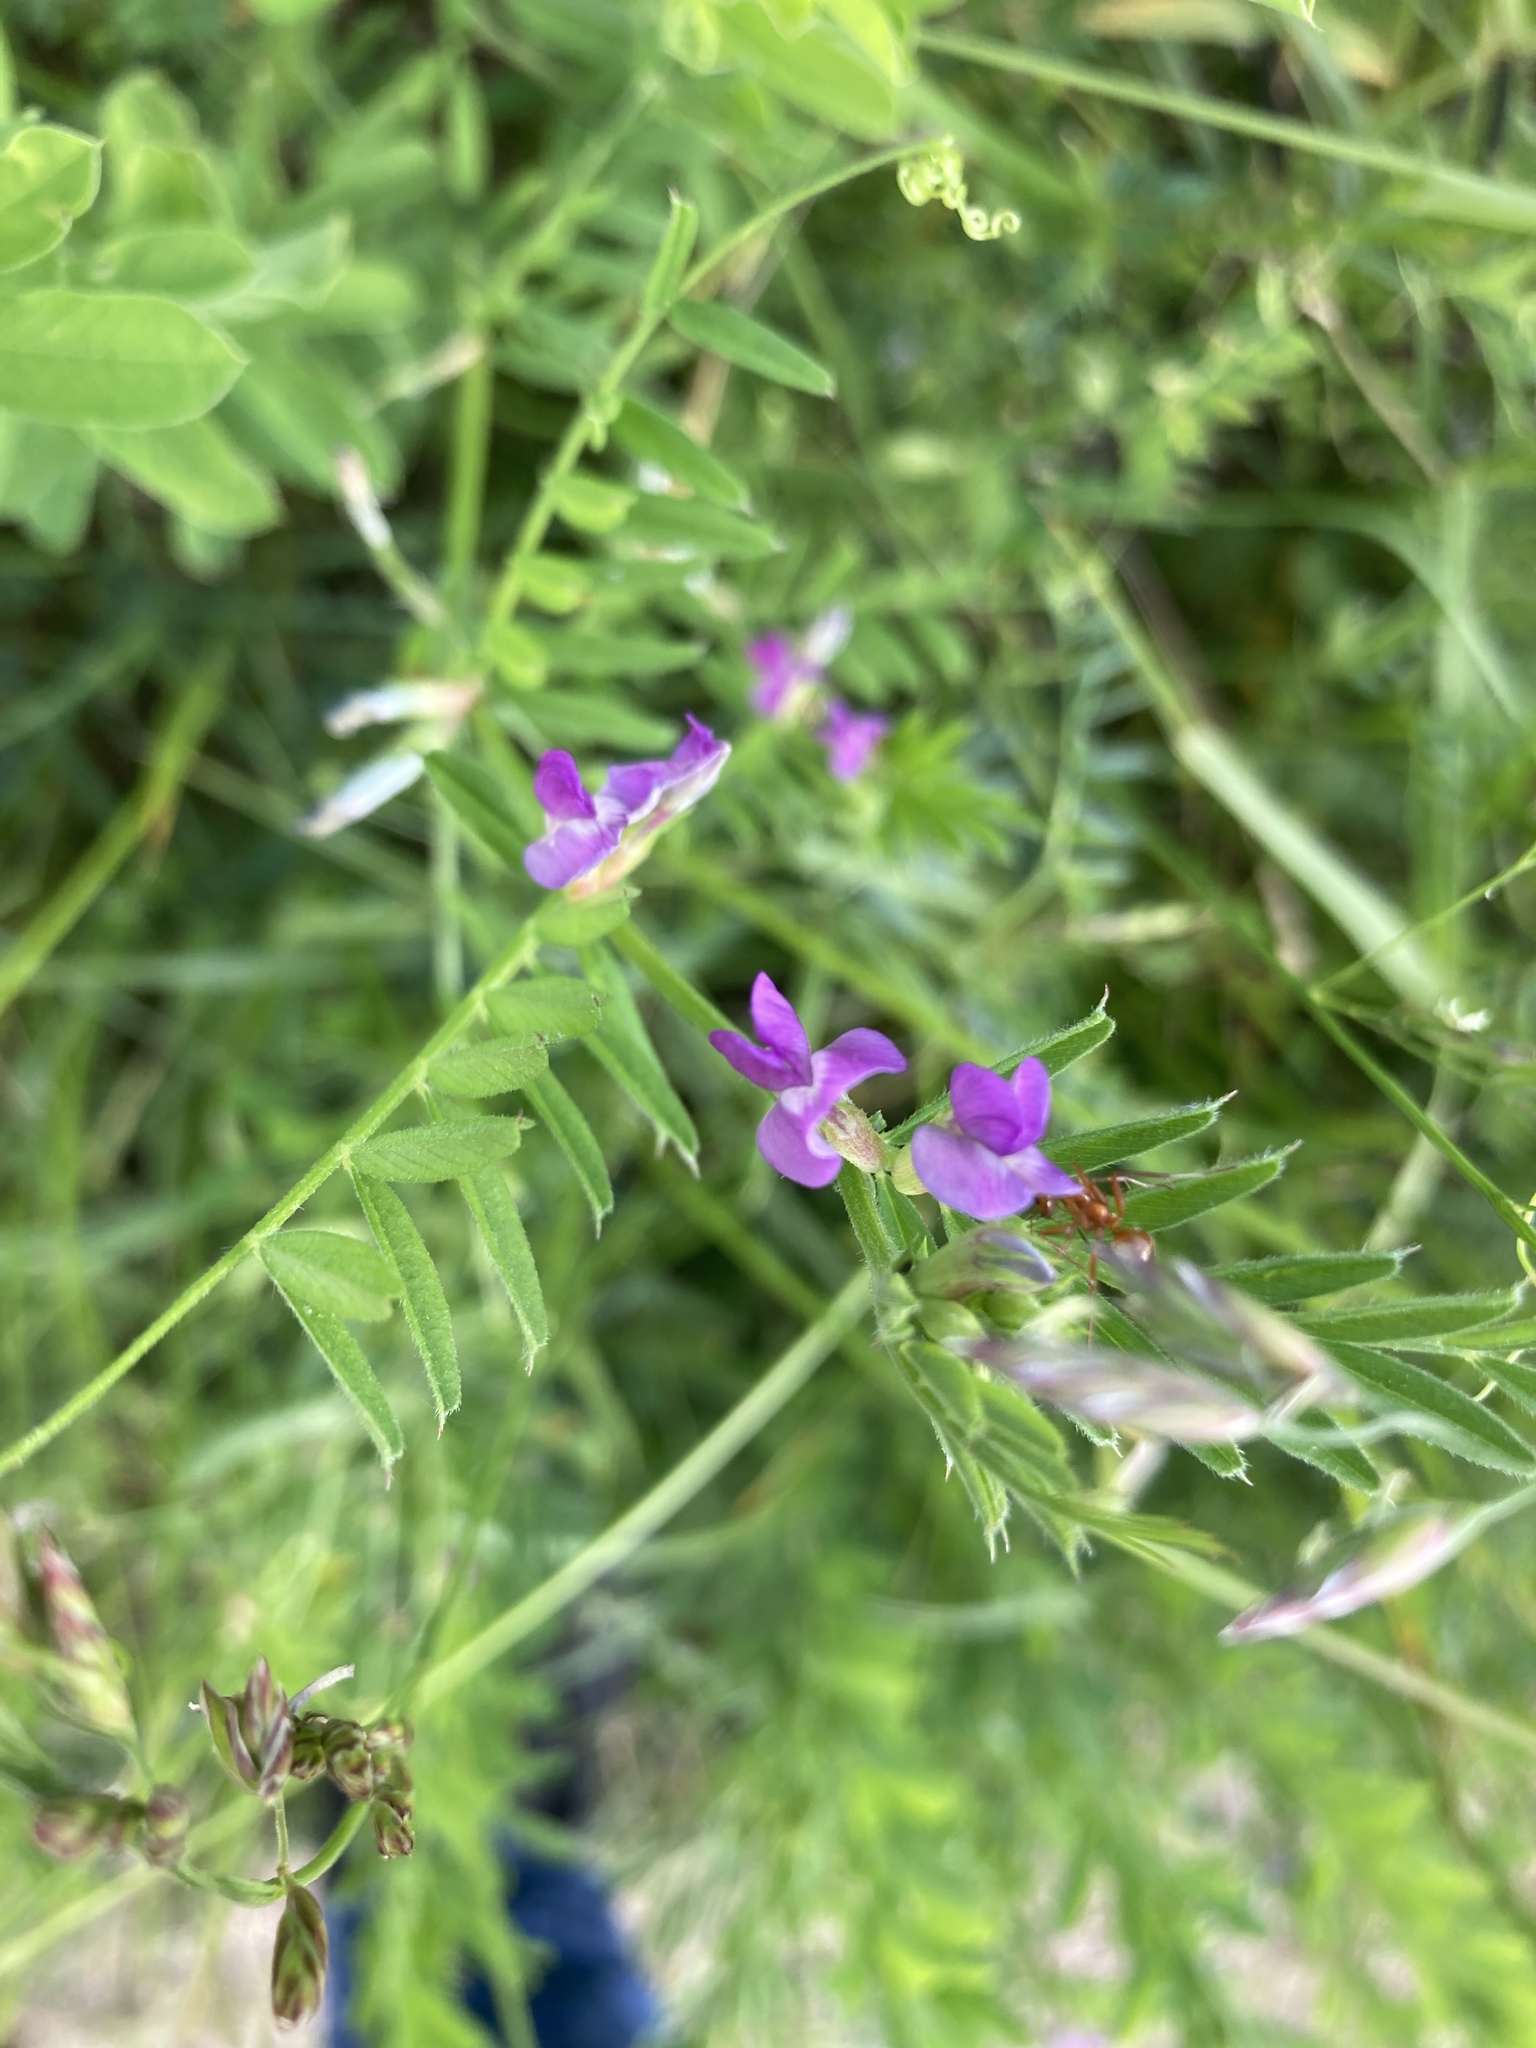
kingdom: Plantae
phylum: Tracheophyta
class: Magnoliopsida
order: Fabales
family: Fabaceae
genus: Vicia
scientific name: Vicia sativa
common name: Garden vetch
